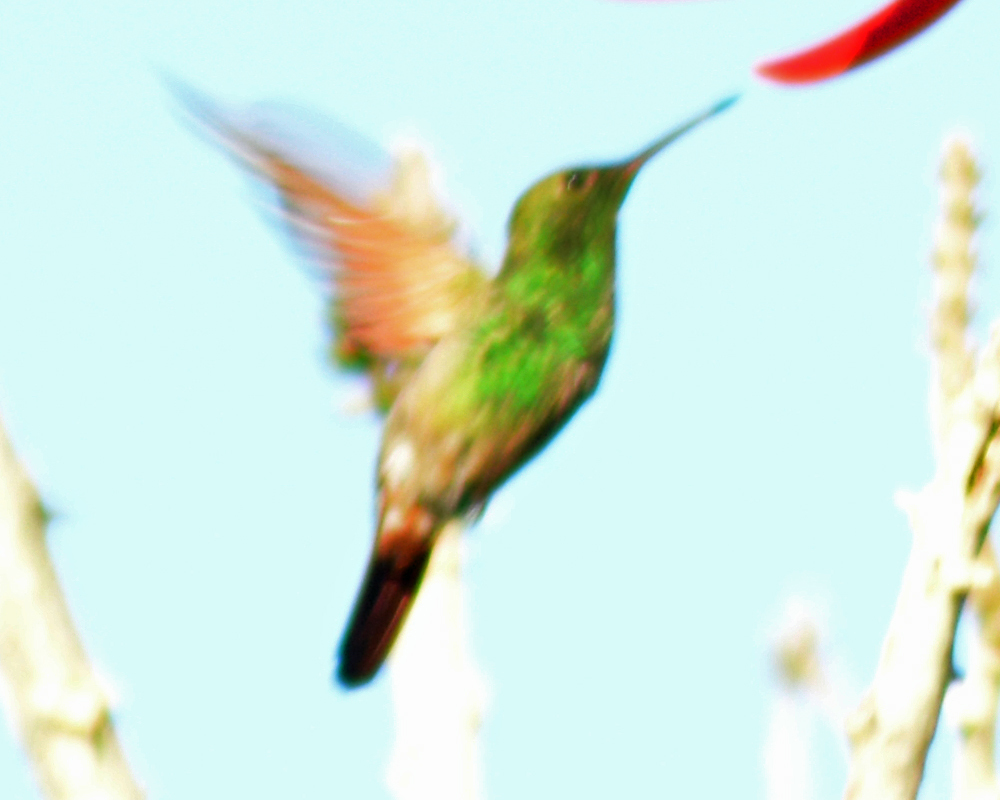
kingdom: Animalia
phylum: Chordata
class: Aves
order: Apodiformes
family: Trochilidae
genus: Saucerottia
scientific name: Saucerottia beryllina
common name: Berylline hummingbird
